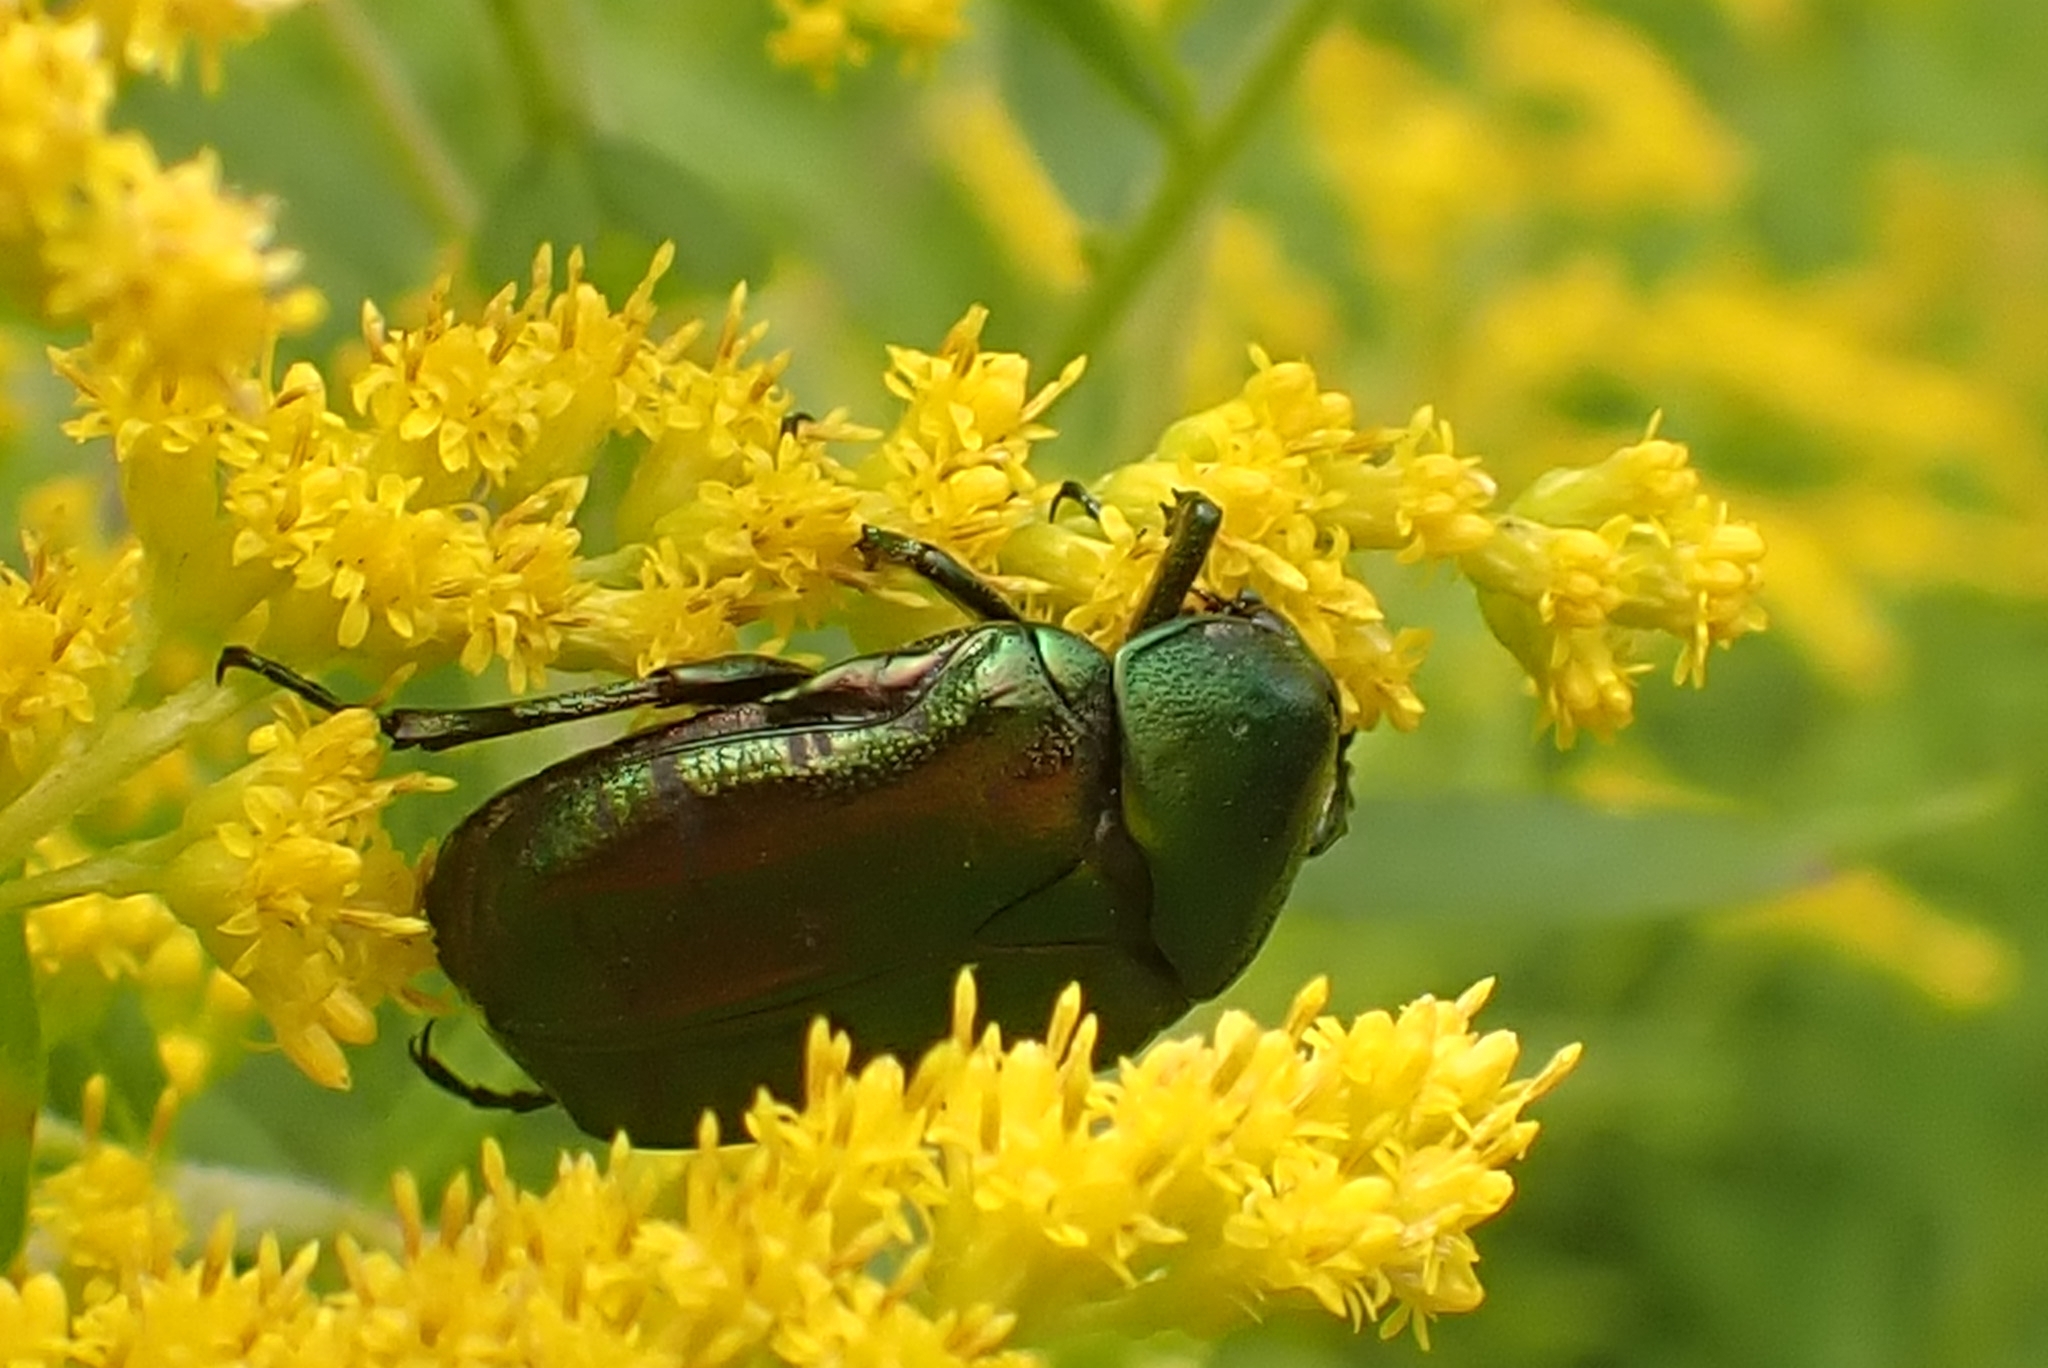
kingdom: Animalia
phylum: Arthropoda
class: Insecta
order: Coleoptera
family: Scarabaeidae
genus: Cetonia
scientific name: Cetonia aurata
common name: Rose chafer
